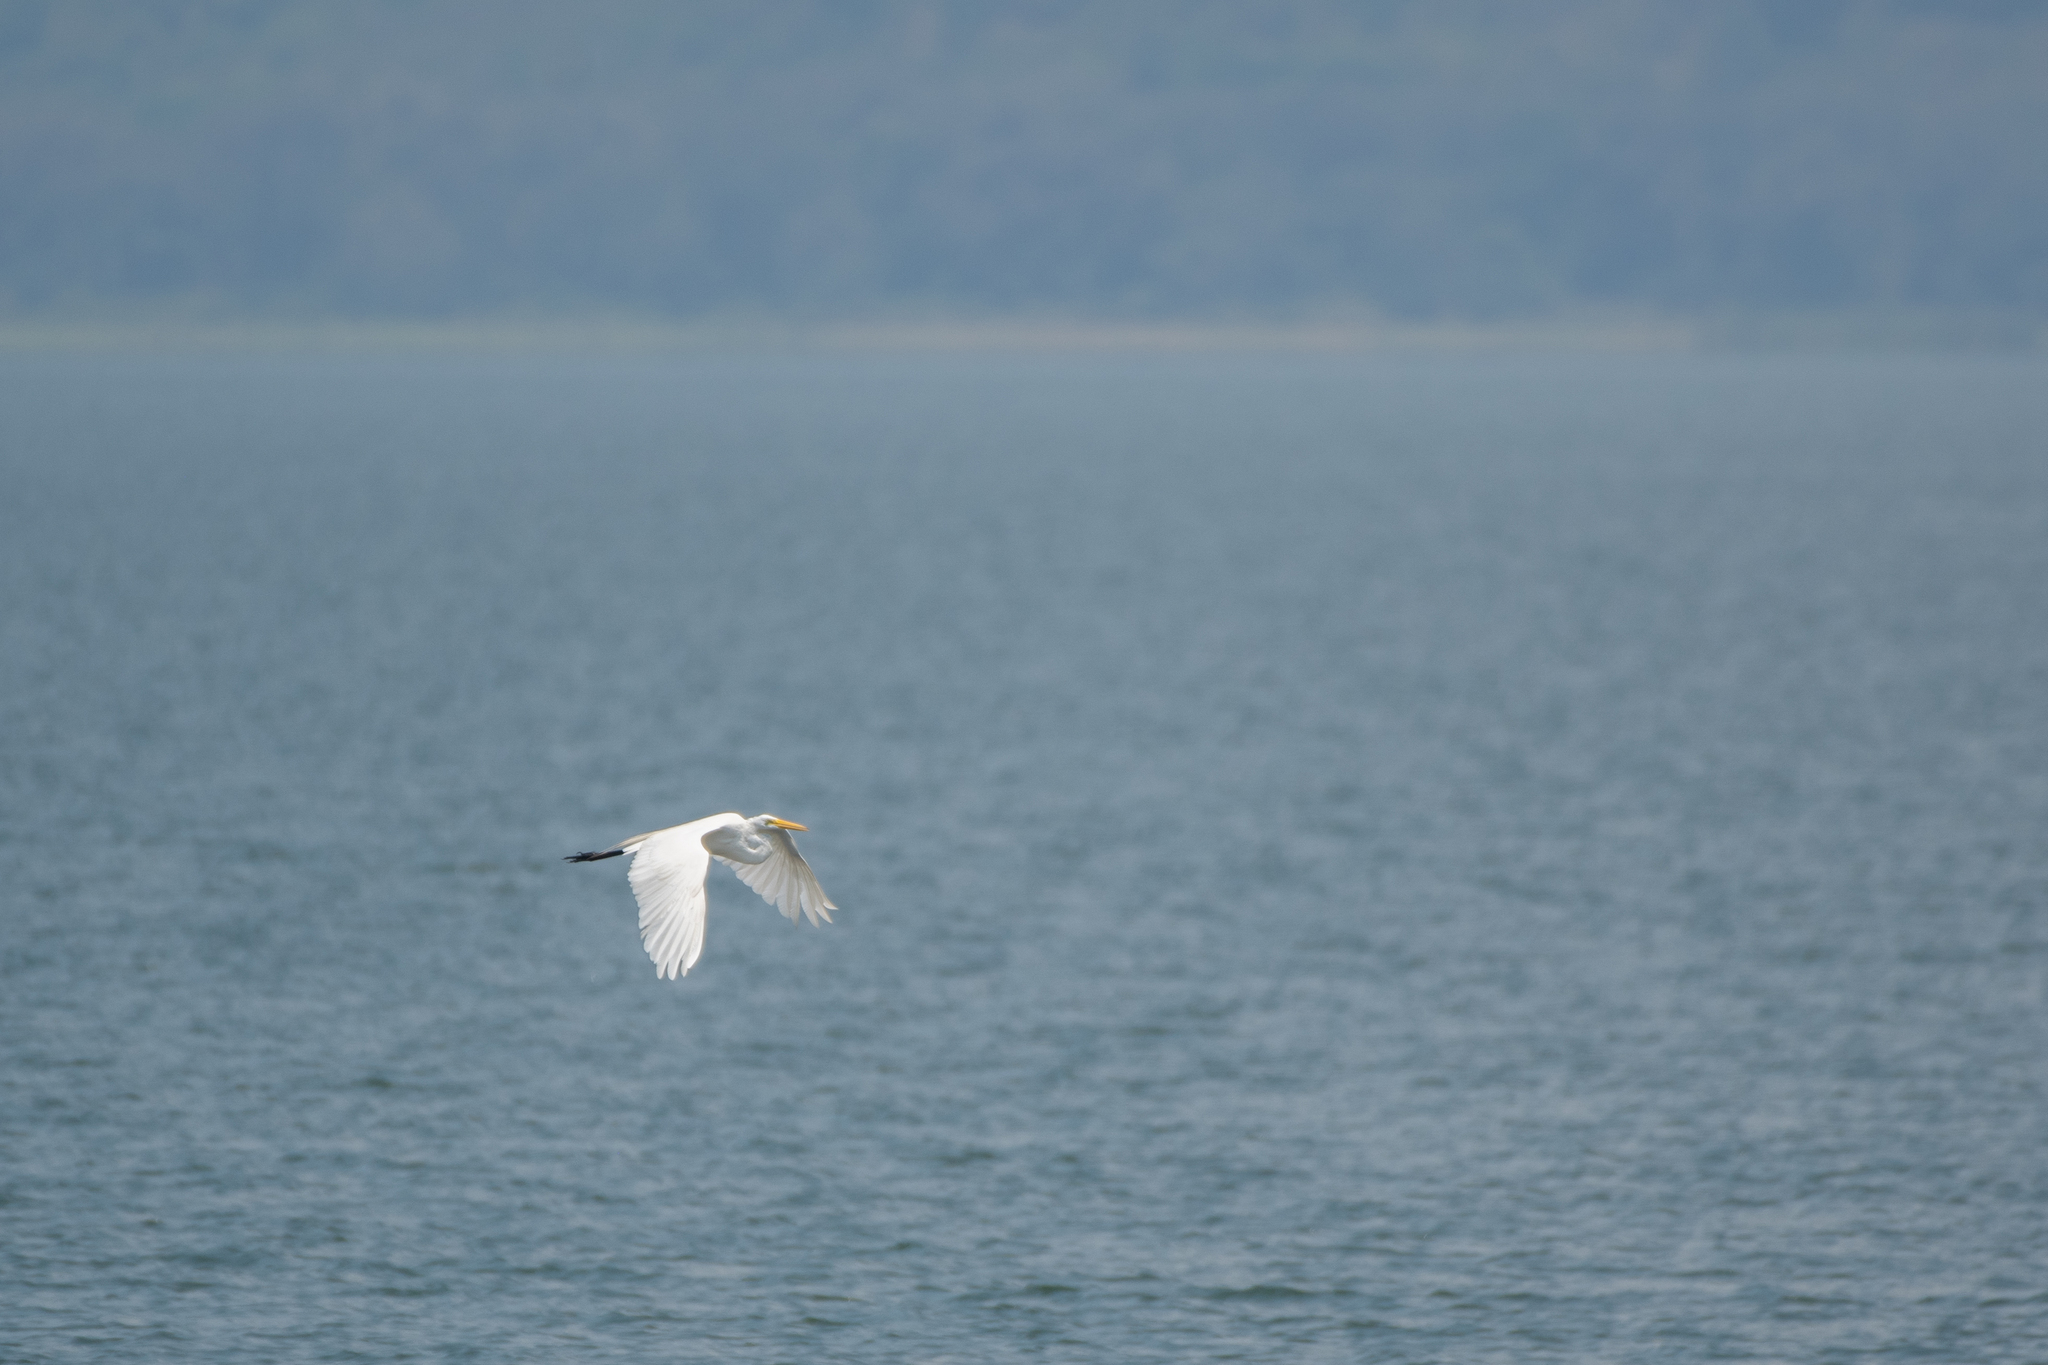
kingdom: Animalia
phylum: Chordata
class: Aves
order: Pelecaniformes
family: Ardeidae
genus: Ardea
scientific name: Ardea alba
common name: Great egret
